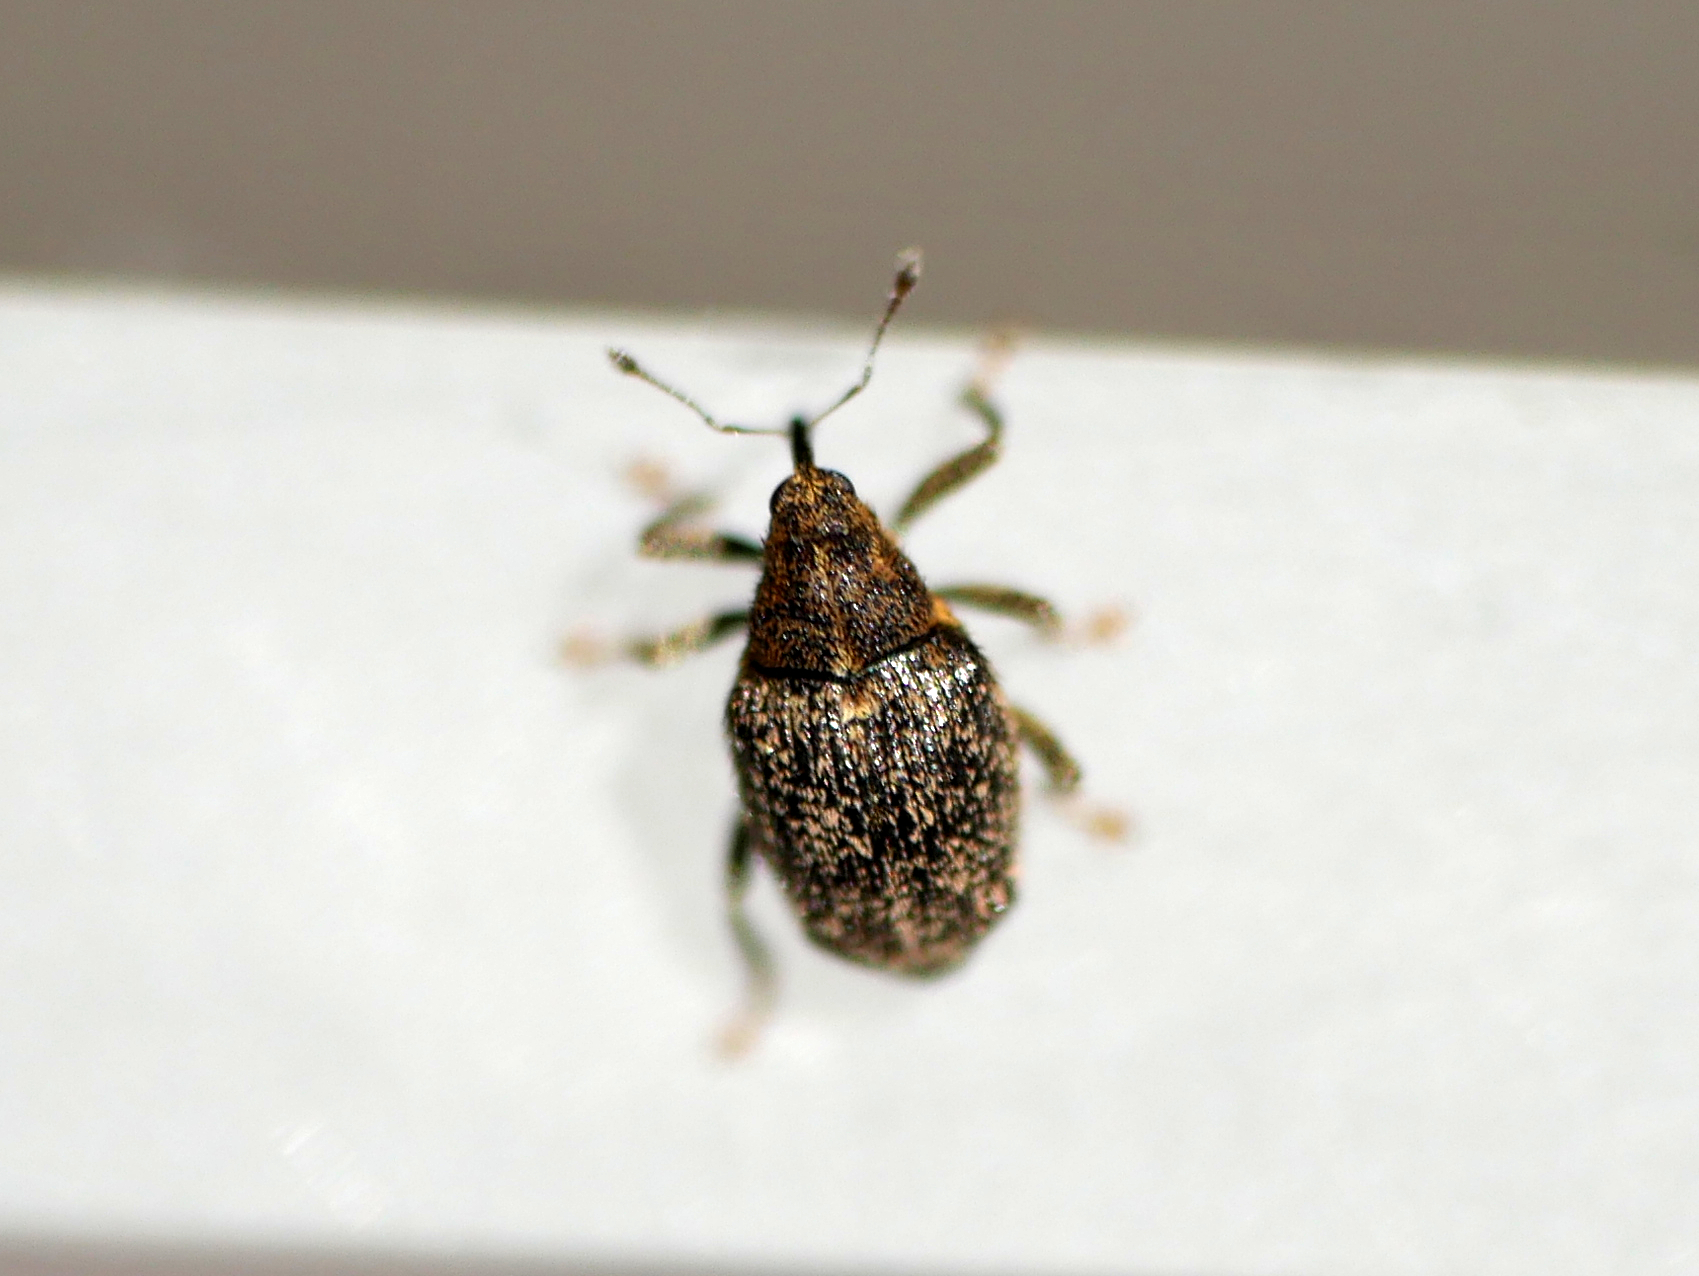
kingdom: Animalia
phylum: Arthropoda
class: Insecta
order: Coleoptera
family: Curculionidae
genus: Ceutorhynchus
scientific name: Ceutorhynchus pallidactylus
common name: Cabbage stem weavil
